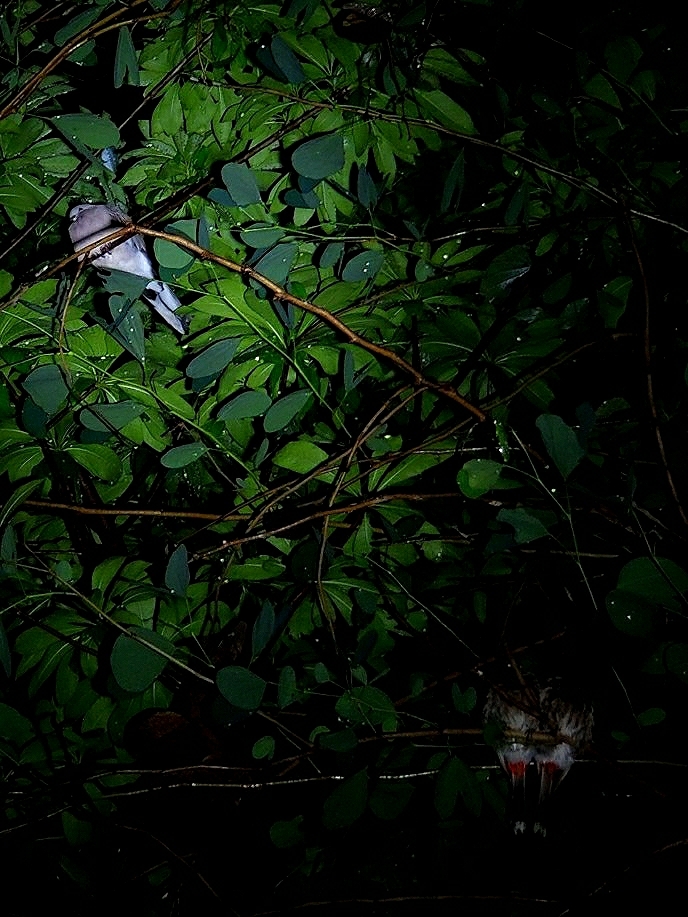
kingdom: Animalia
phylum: Chordata
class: Aves
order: Columbiformes
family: Columbidae
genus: Spilopelia
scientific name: Spilopelia chinensis
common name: Spotted dove
